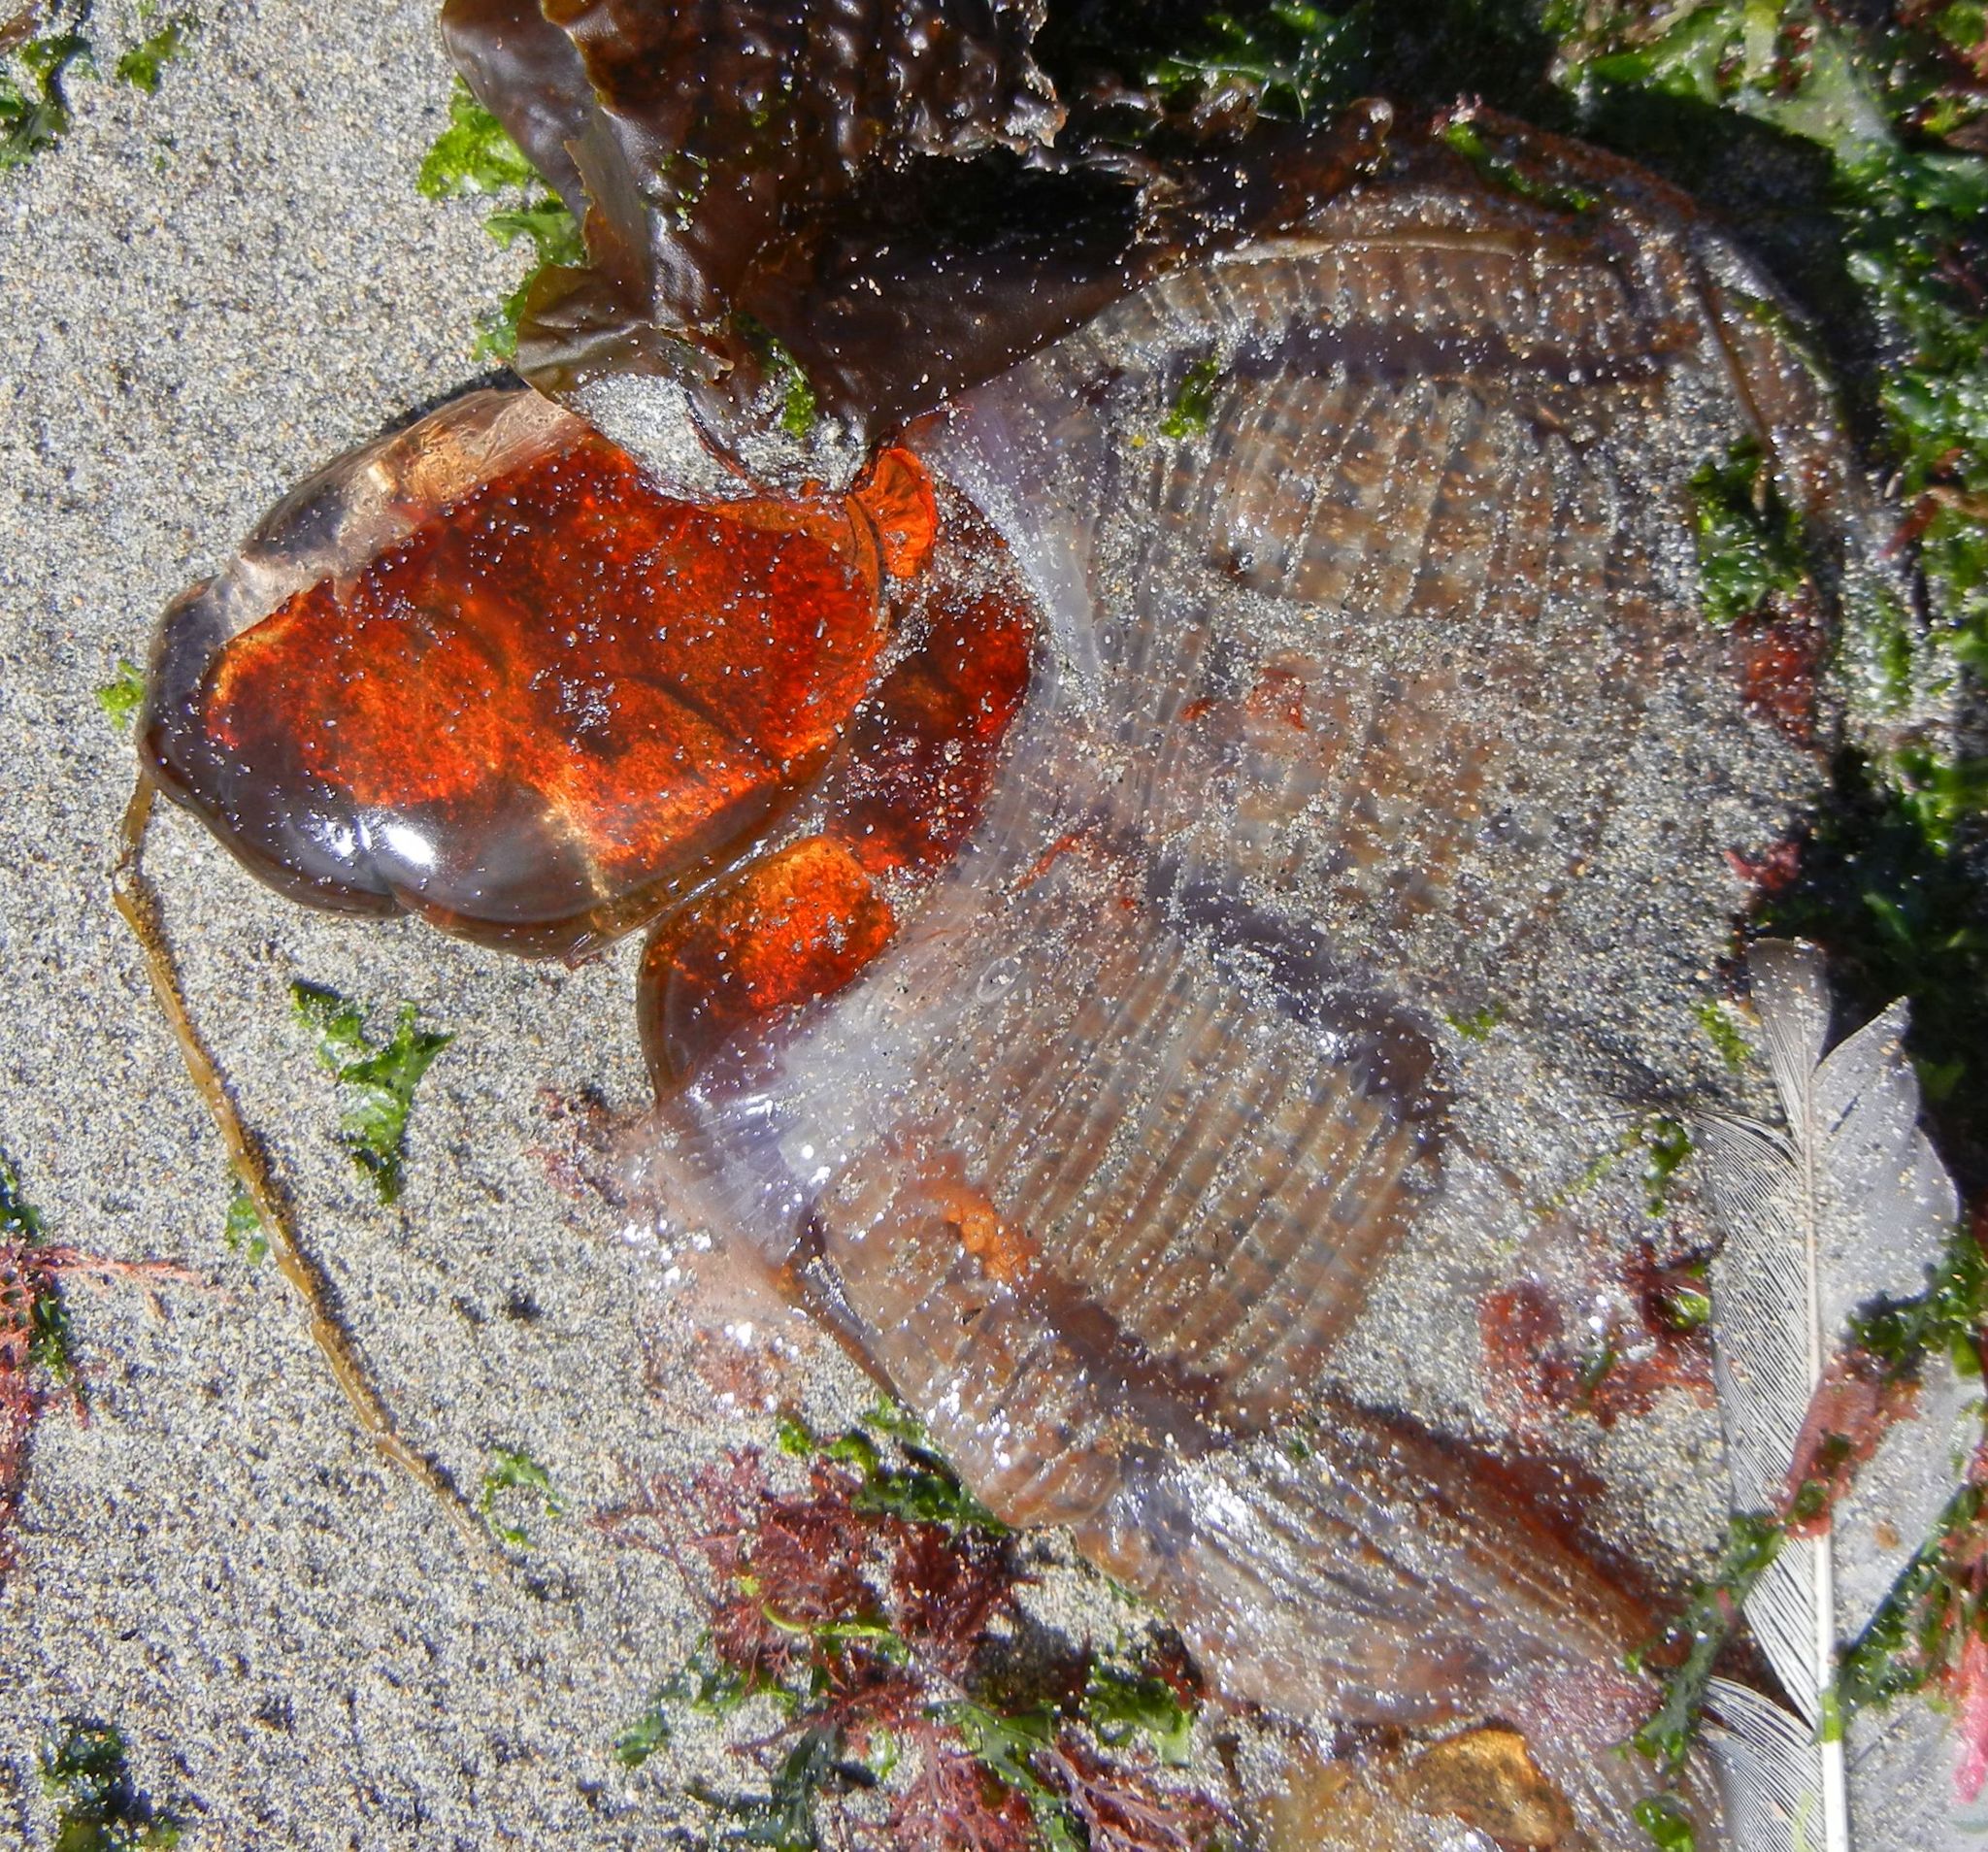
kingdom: Animalia
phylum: Cnidaria
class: Scyphozoa
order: Semaeostomeae
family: Cyaneidae
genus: Cyanea
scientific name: Cyanea capillata
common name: Lion's mane jellyfish
